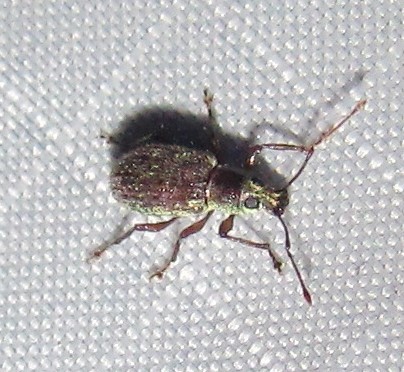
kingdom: Animalia
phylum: Arthropoda
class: Insecta
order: Coleoptera
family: Curculionidae
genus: Cyrtepistomus
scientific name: Cyrtepistomus castaneus
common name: Weevil
